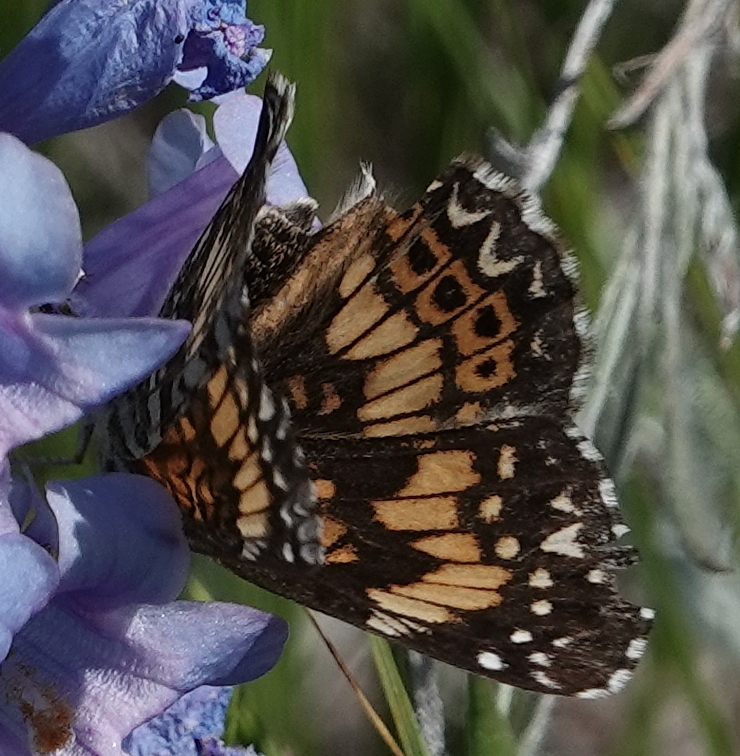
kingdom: Animalia
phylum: Arthropoda
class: Insecta
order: Lepidoptera
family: Nymphalidae
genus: Chlosyne
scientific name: Chlosyne gorgone
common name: Gorgone checkerspot
